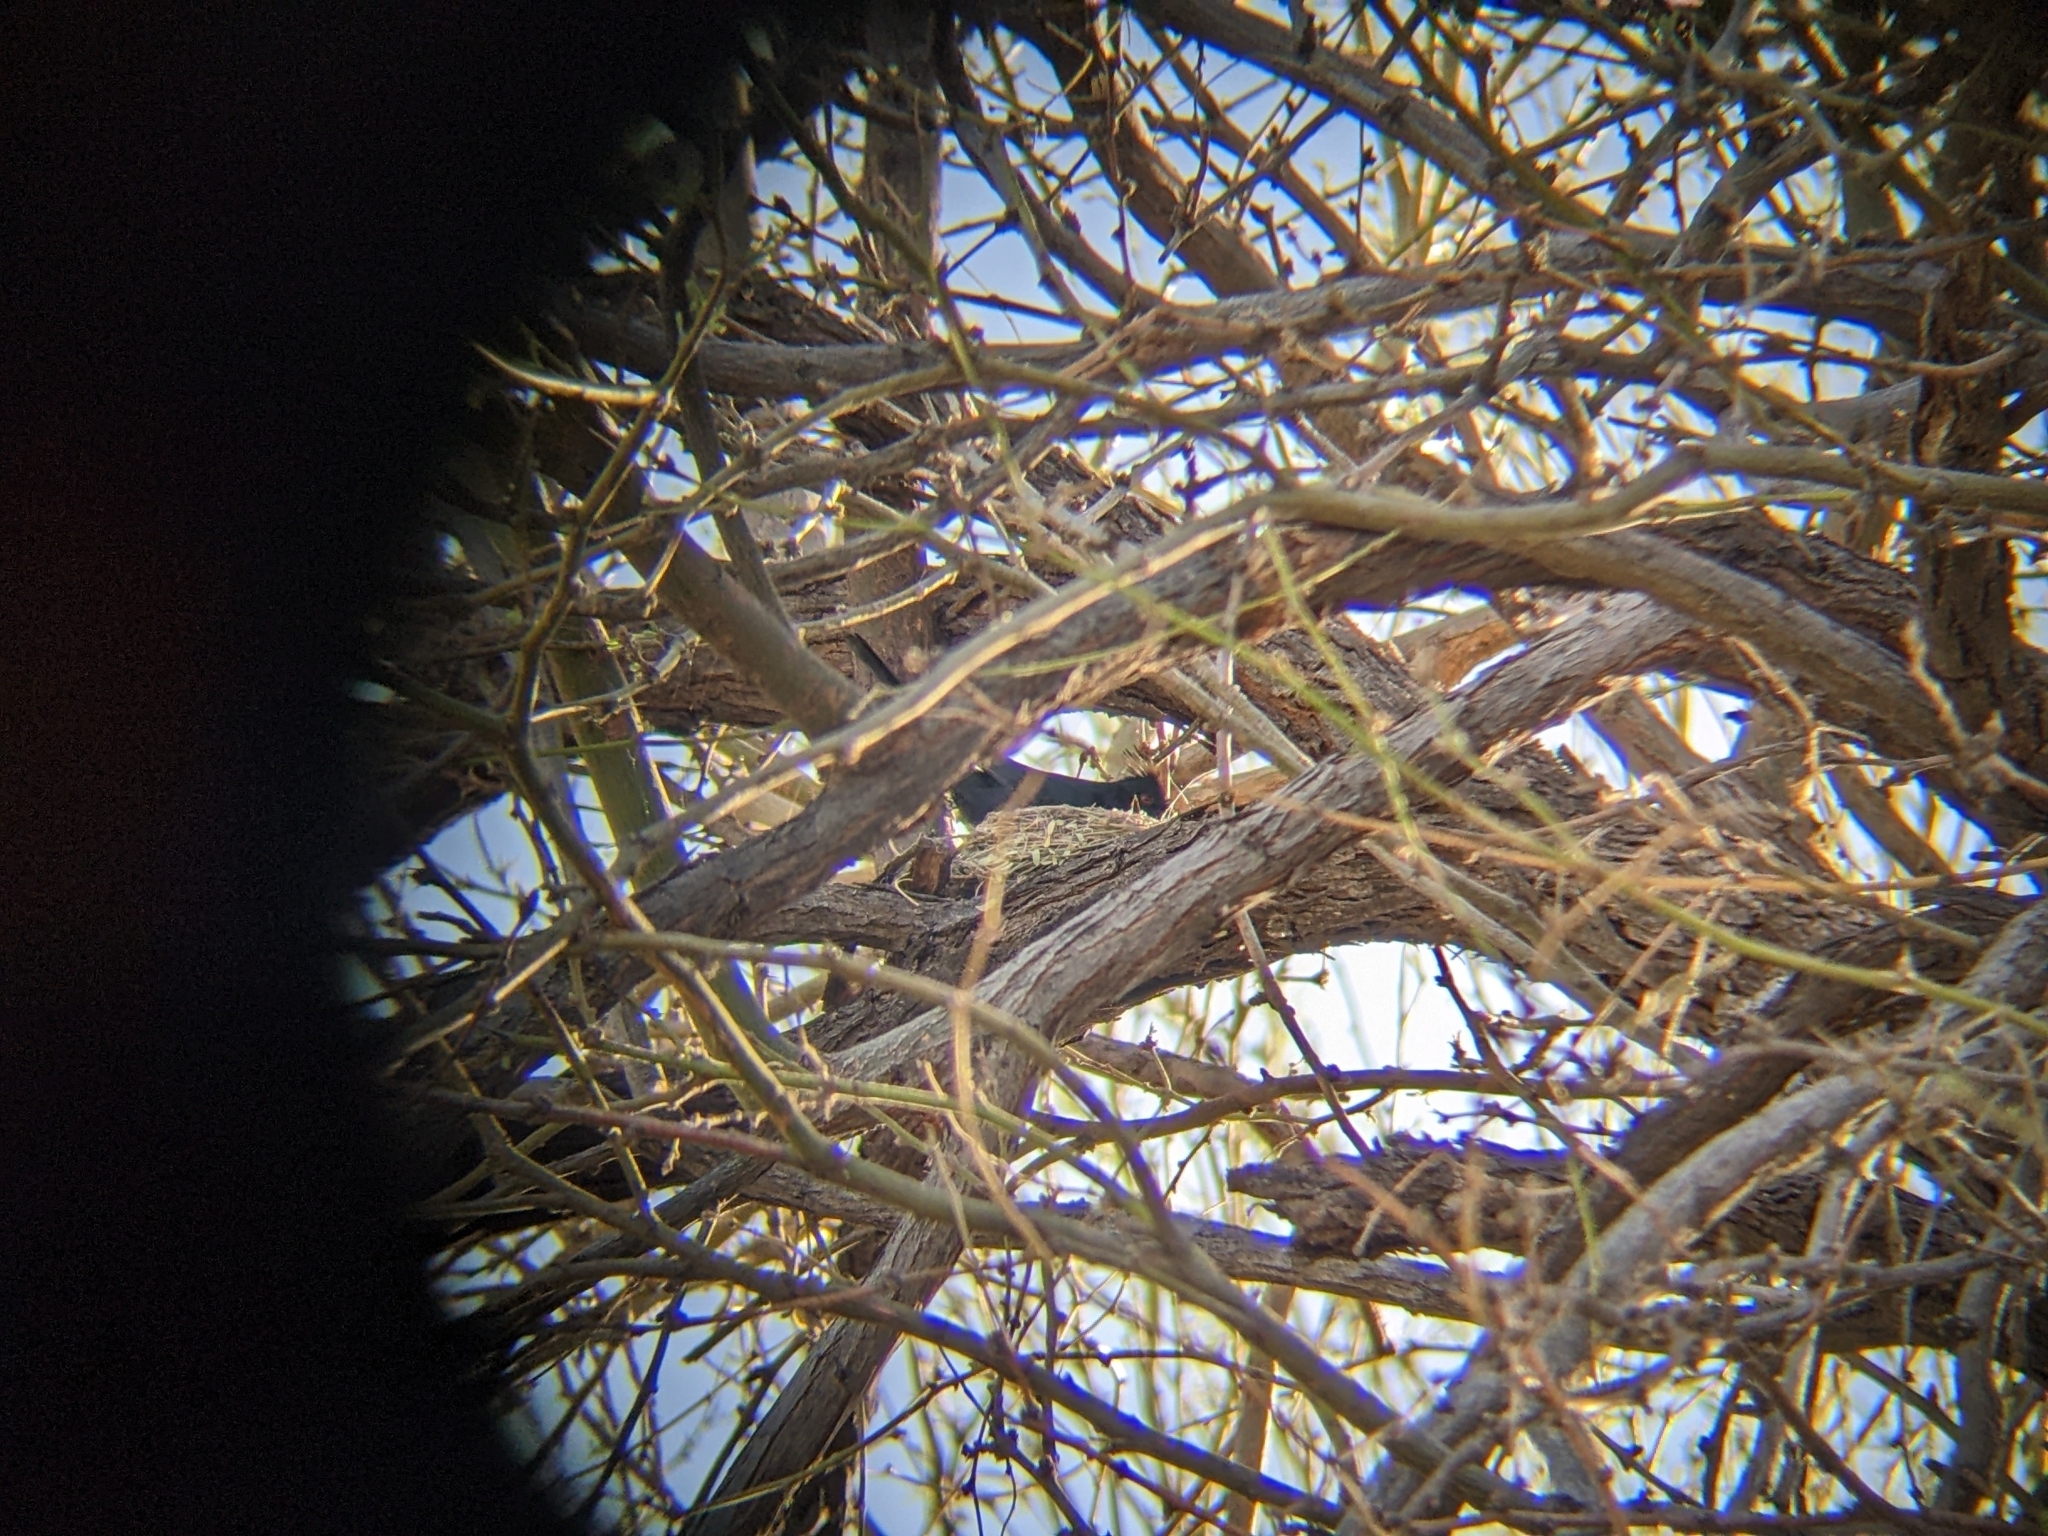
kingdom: Animalia
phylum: Chordata
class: Aves
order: Passeriformes
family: Ptilogonatidae
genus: Phainopepla
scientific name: Phainopepla nitens
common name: Phainopepla
